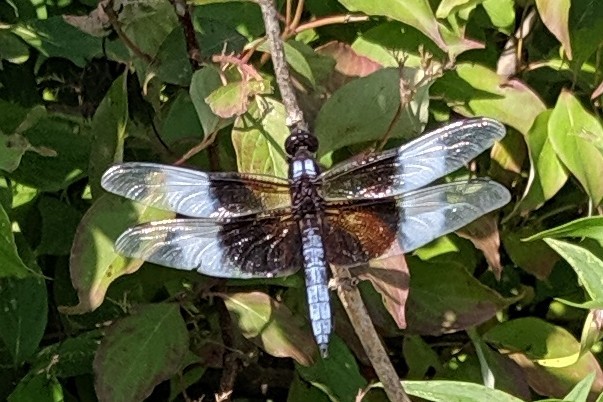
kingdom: Animalia
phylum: Arthropoda
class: Insecta
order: Odonata
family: Libellulidae
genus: Libellula
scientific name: Libellula luctuosa
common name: Widow skimmer
